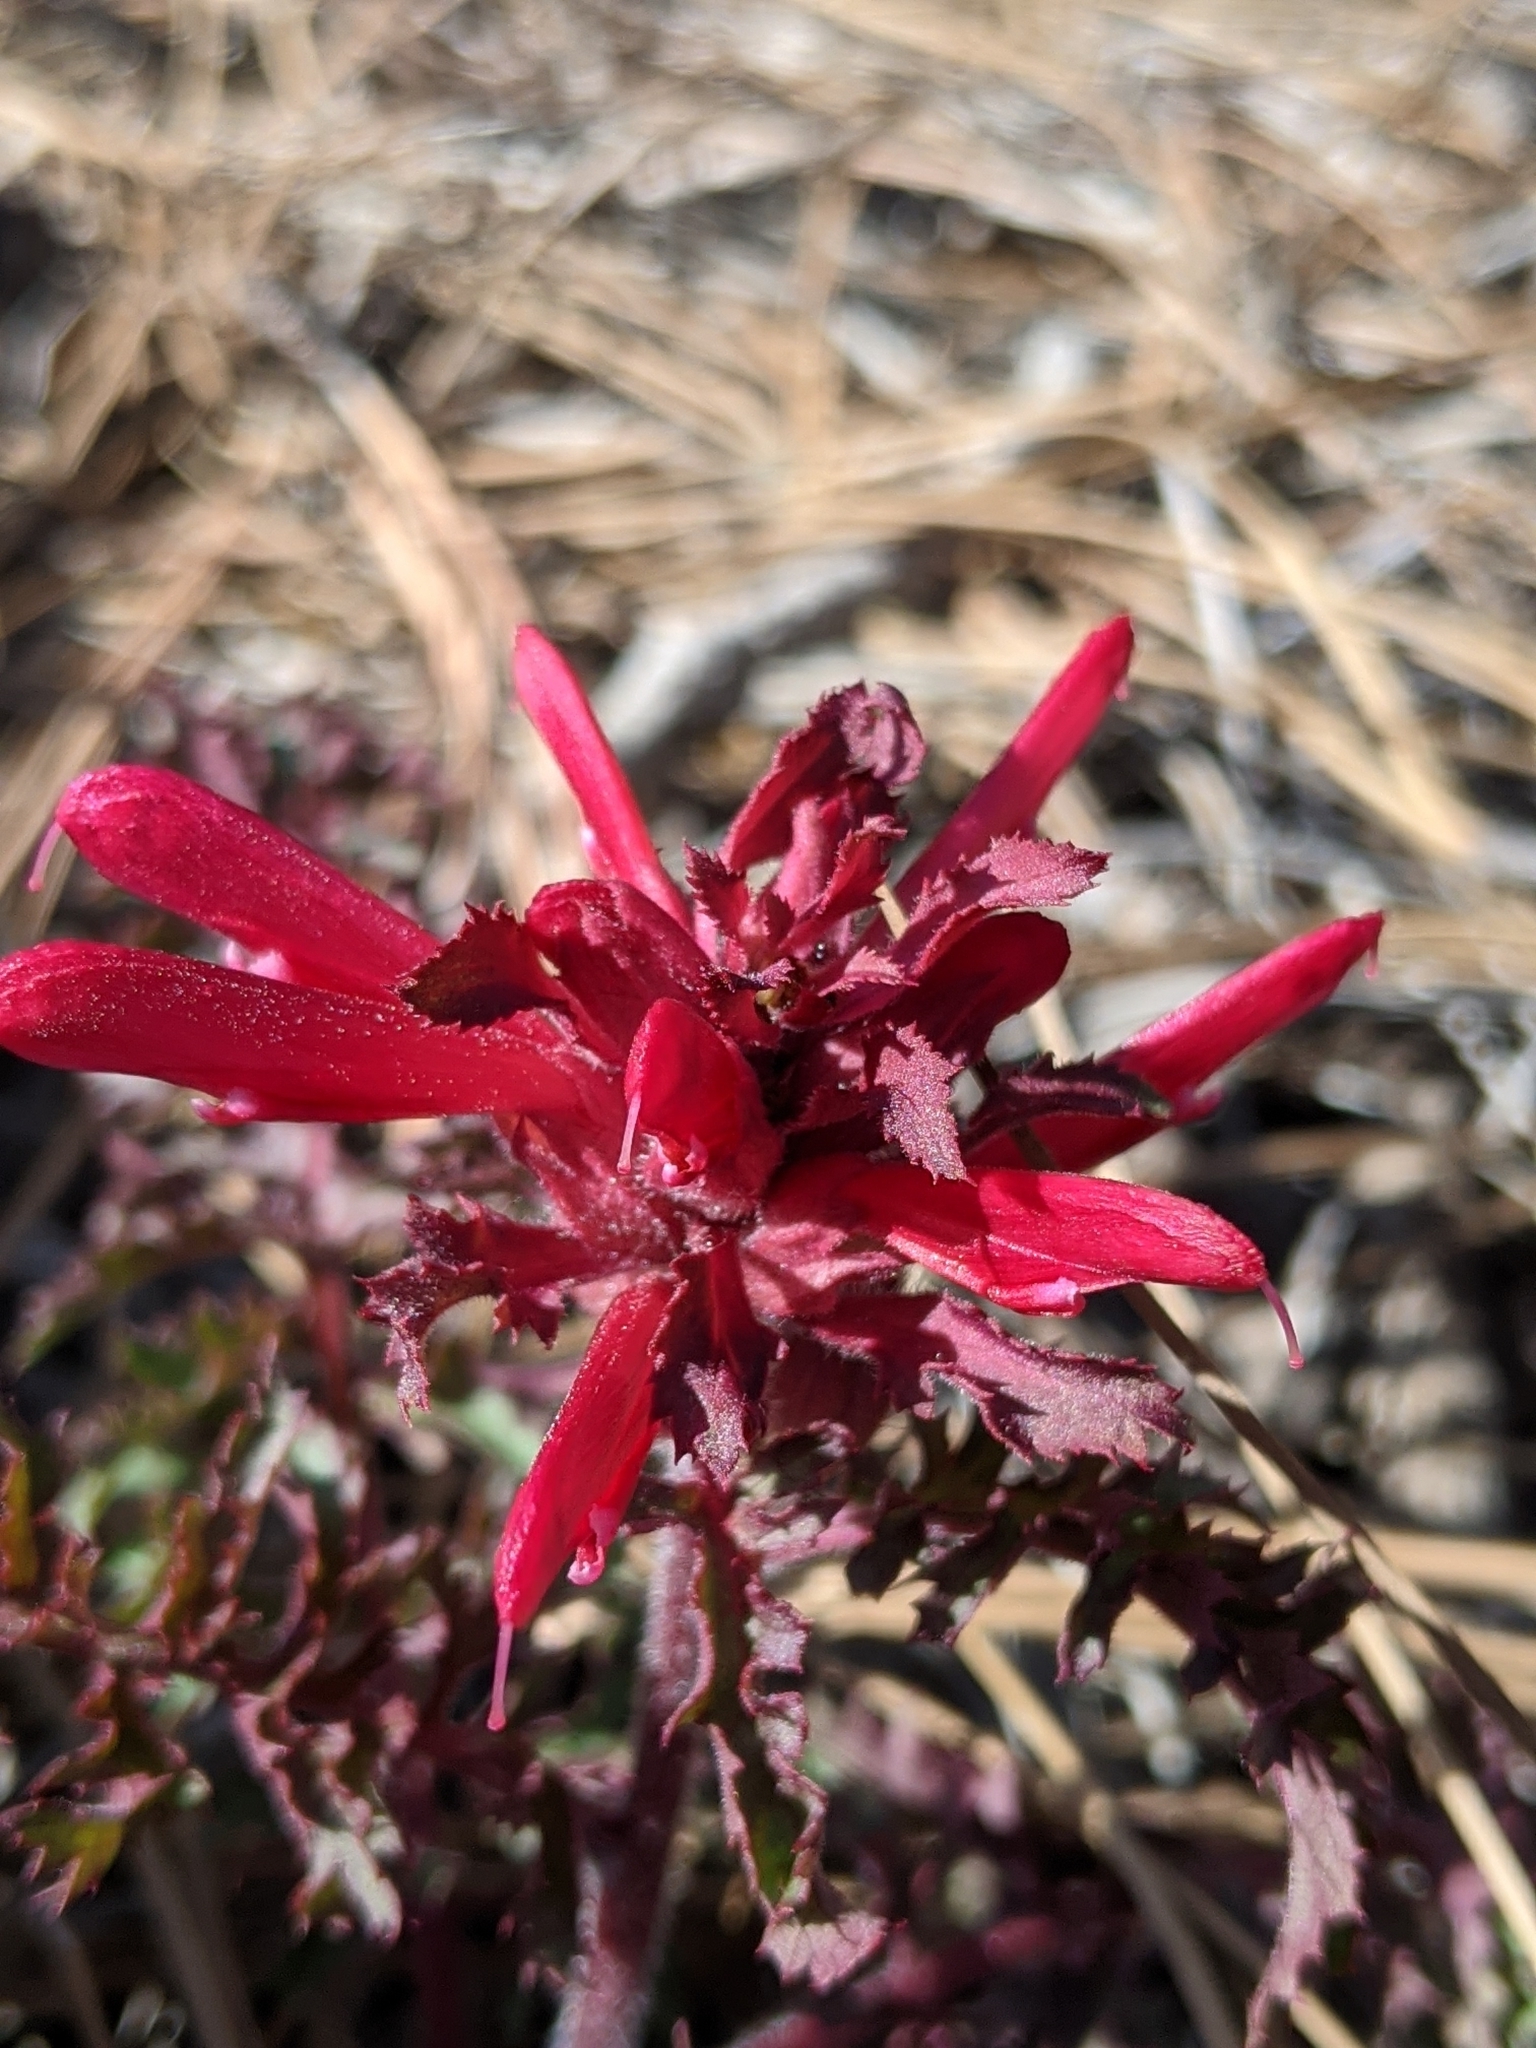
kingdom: Plantae
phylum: Tracheophyta
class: Magnoliopsida
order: Lamiales
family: Orobanchaceae
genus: Pedicularis
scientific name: Pedicularis densiflora
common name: Indian warrior
